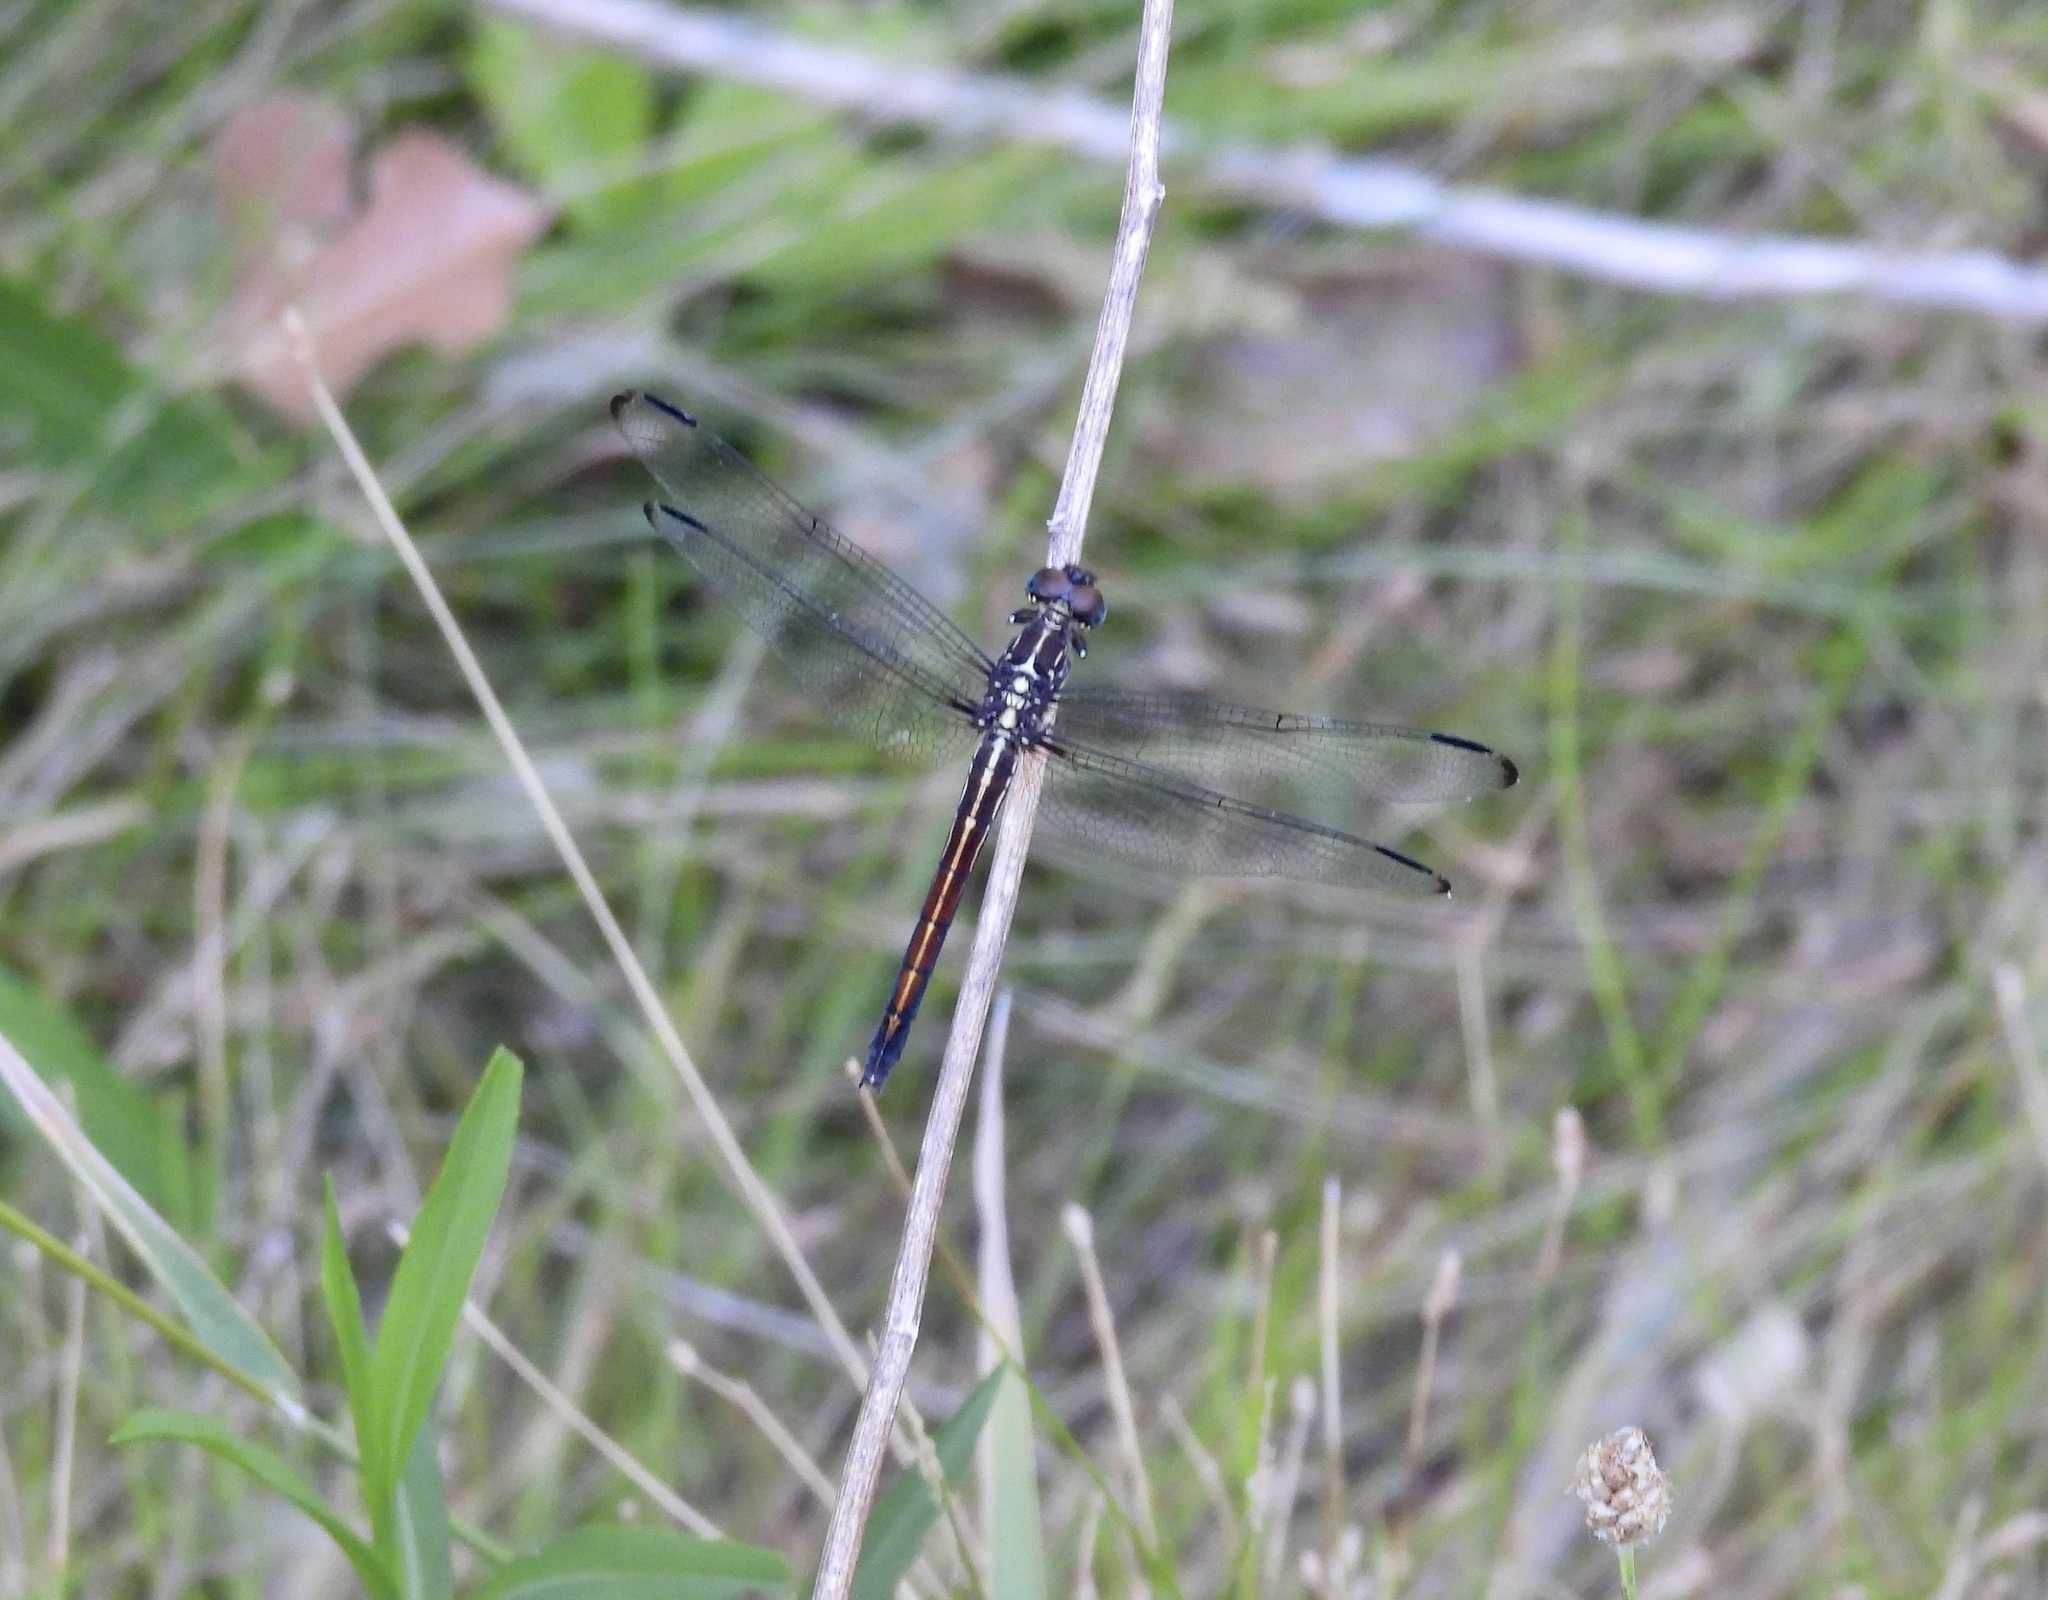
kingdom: Animalia
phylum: Arthropoda
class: Insecta
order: Odonata
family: Libellulidae
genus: Cannaphila
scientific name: Cannaphila insularis
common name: Gray-waisted skimmer
